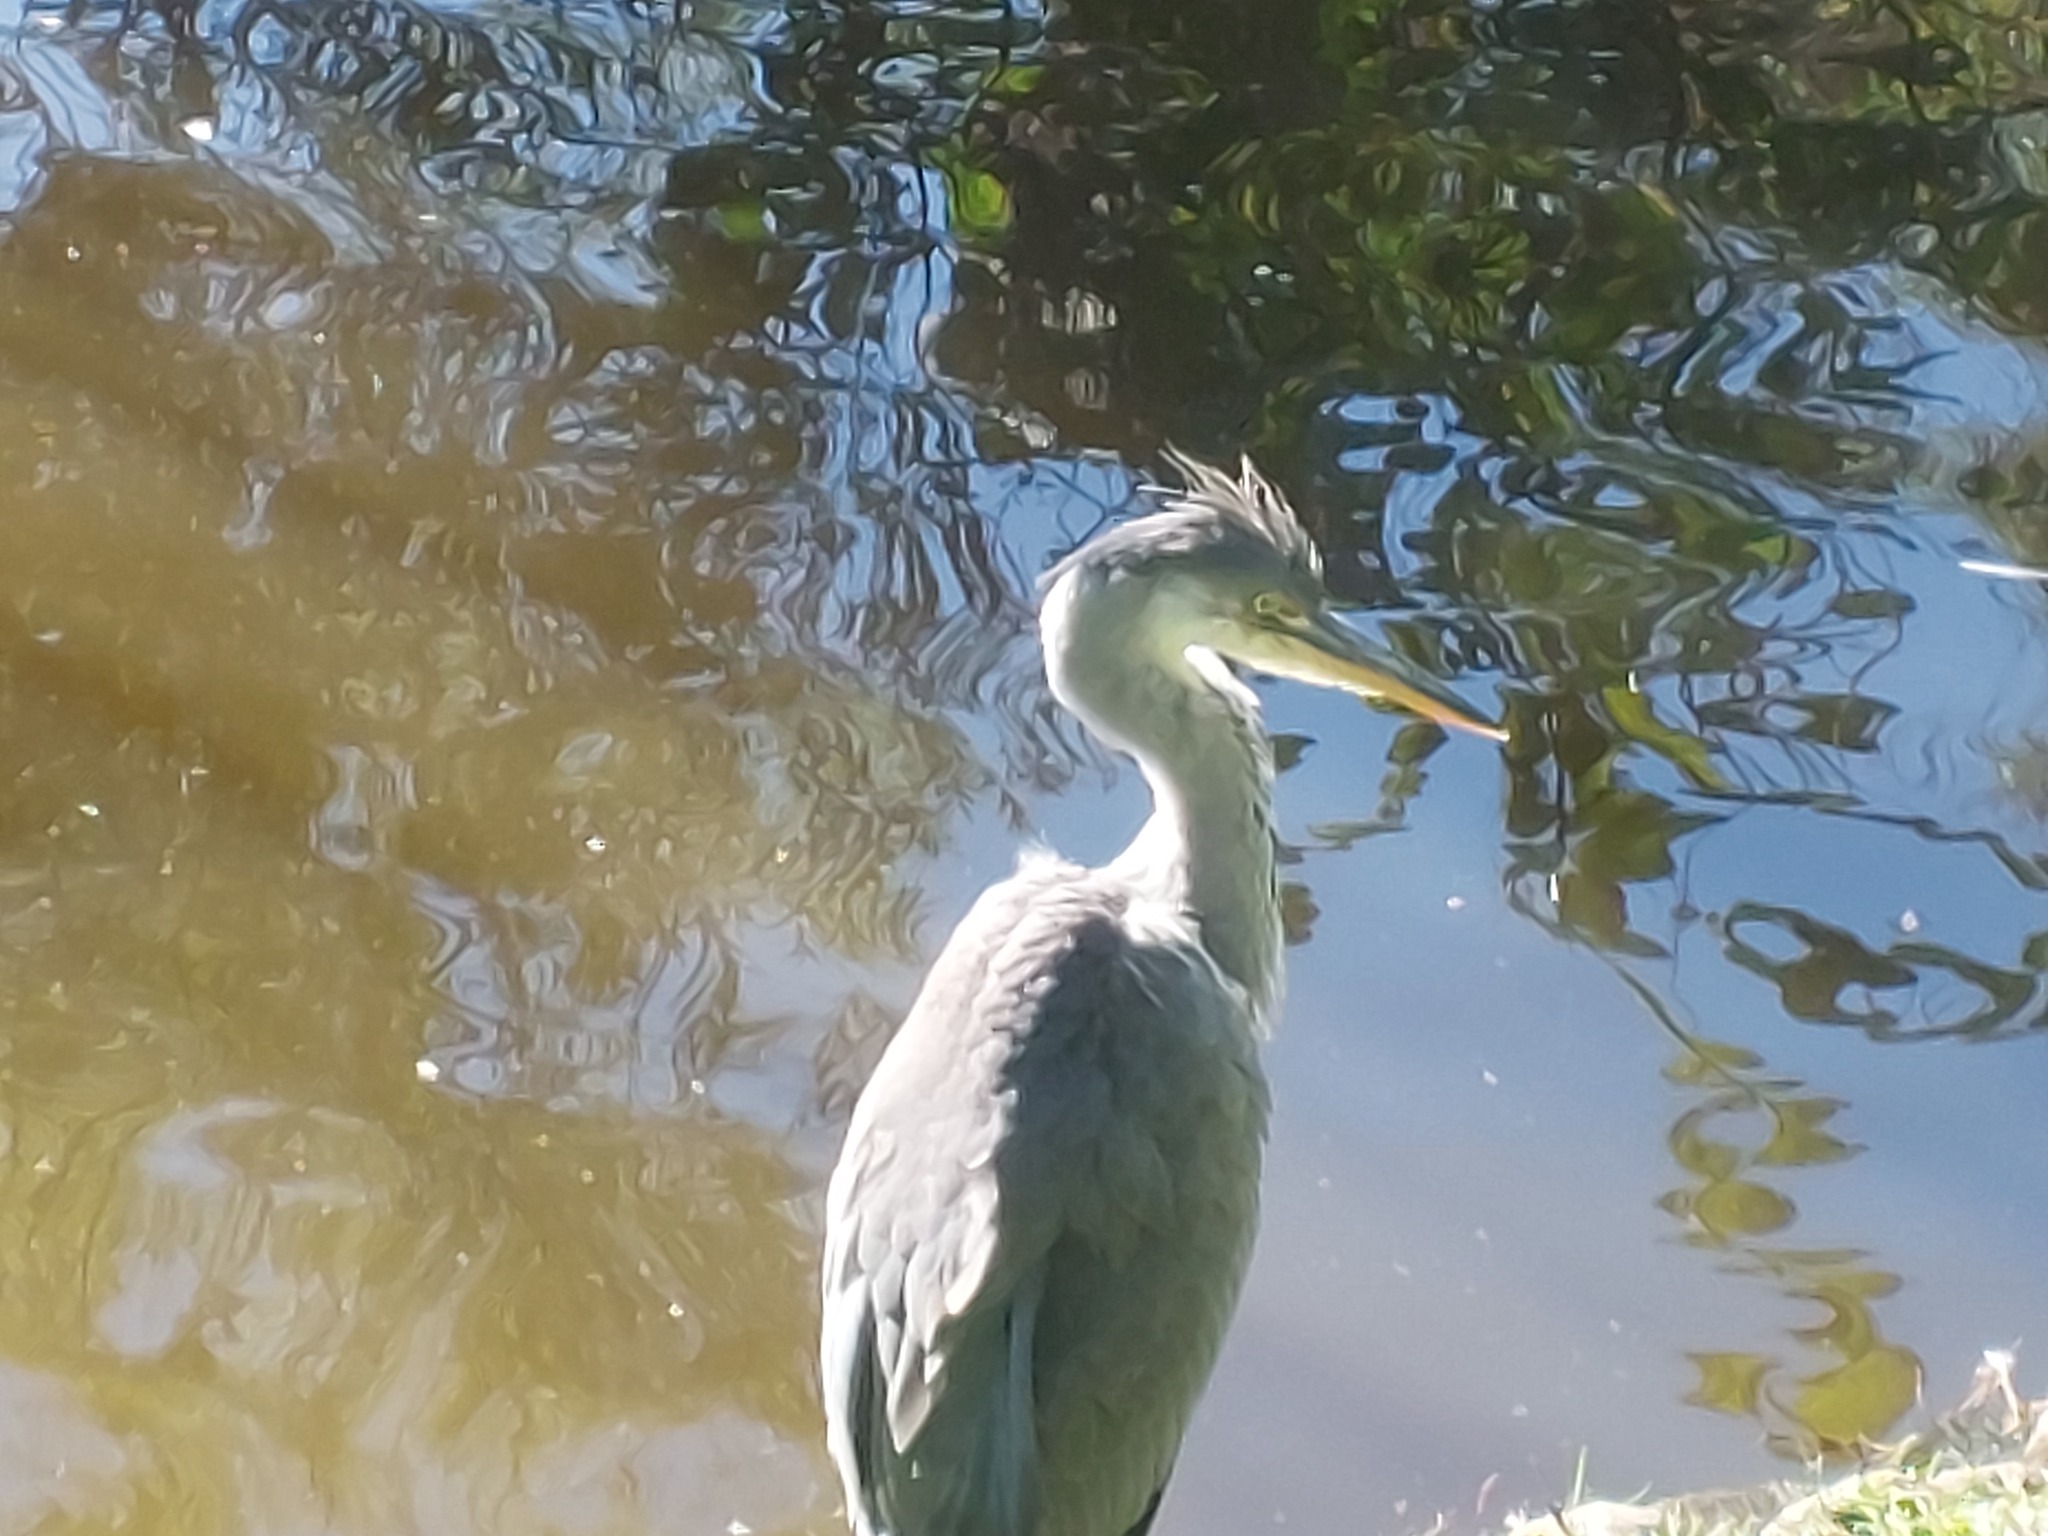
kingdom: Animalia
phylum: Chordata
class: Aves
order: Pelecaniformes
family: Ardeidae
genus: Ardea
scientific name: Ardea cinerea
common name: Grey heron
